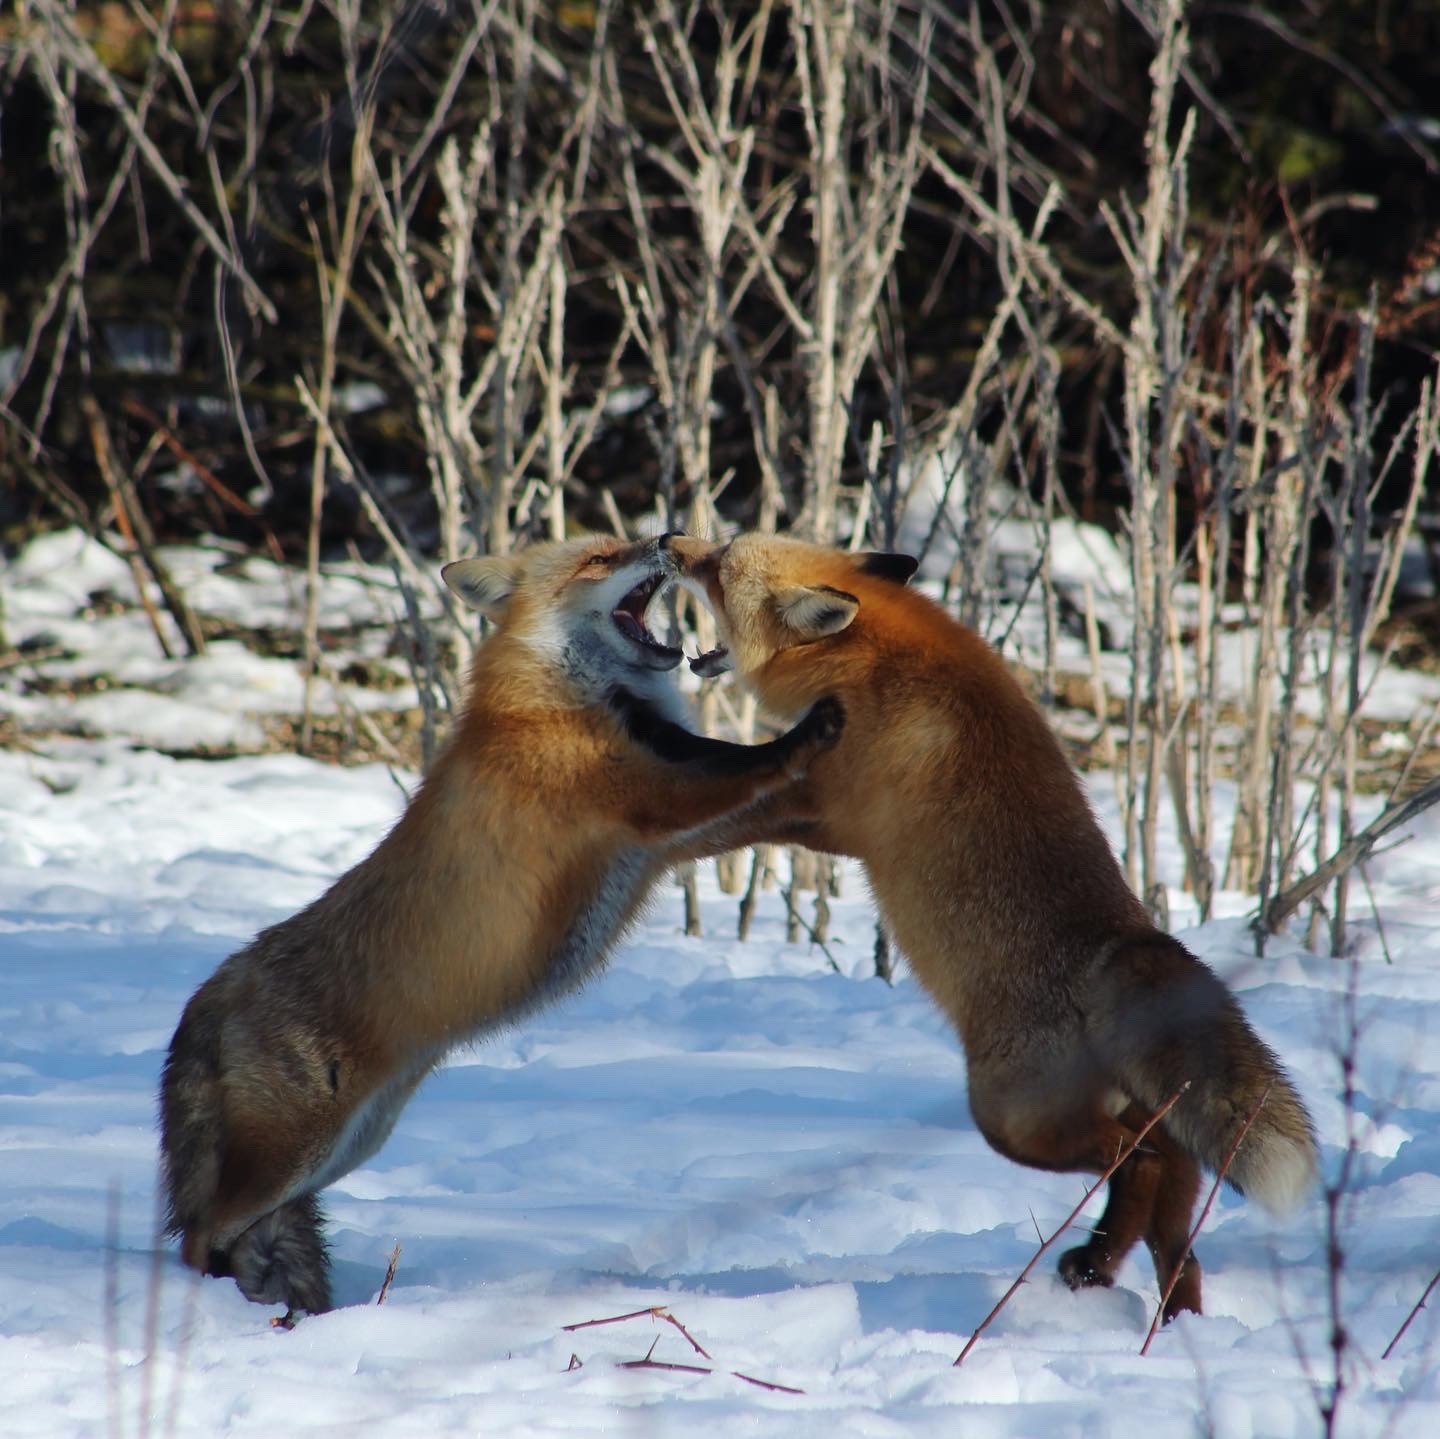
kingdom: Animalia
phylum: Chordata
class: Mammalia
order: Carnivora
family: Canidae
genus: Vulpes
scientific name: Vulpes vulpes
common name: Red fox
